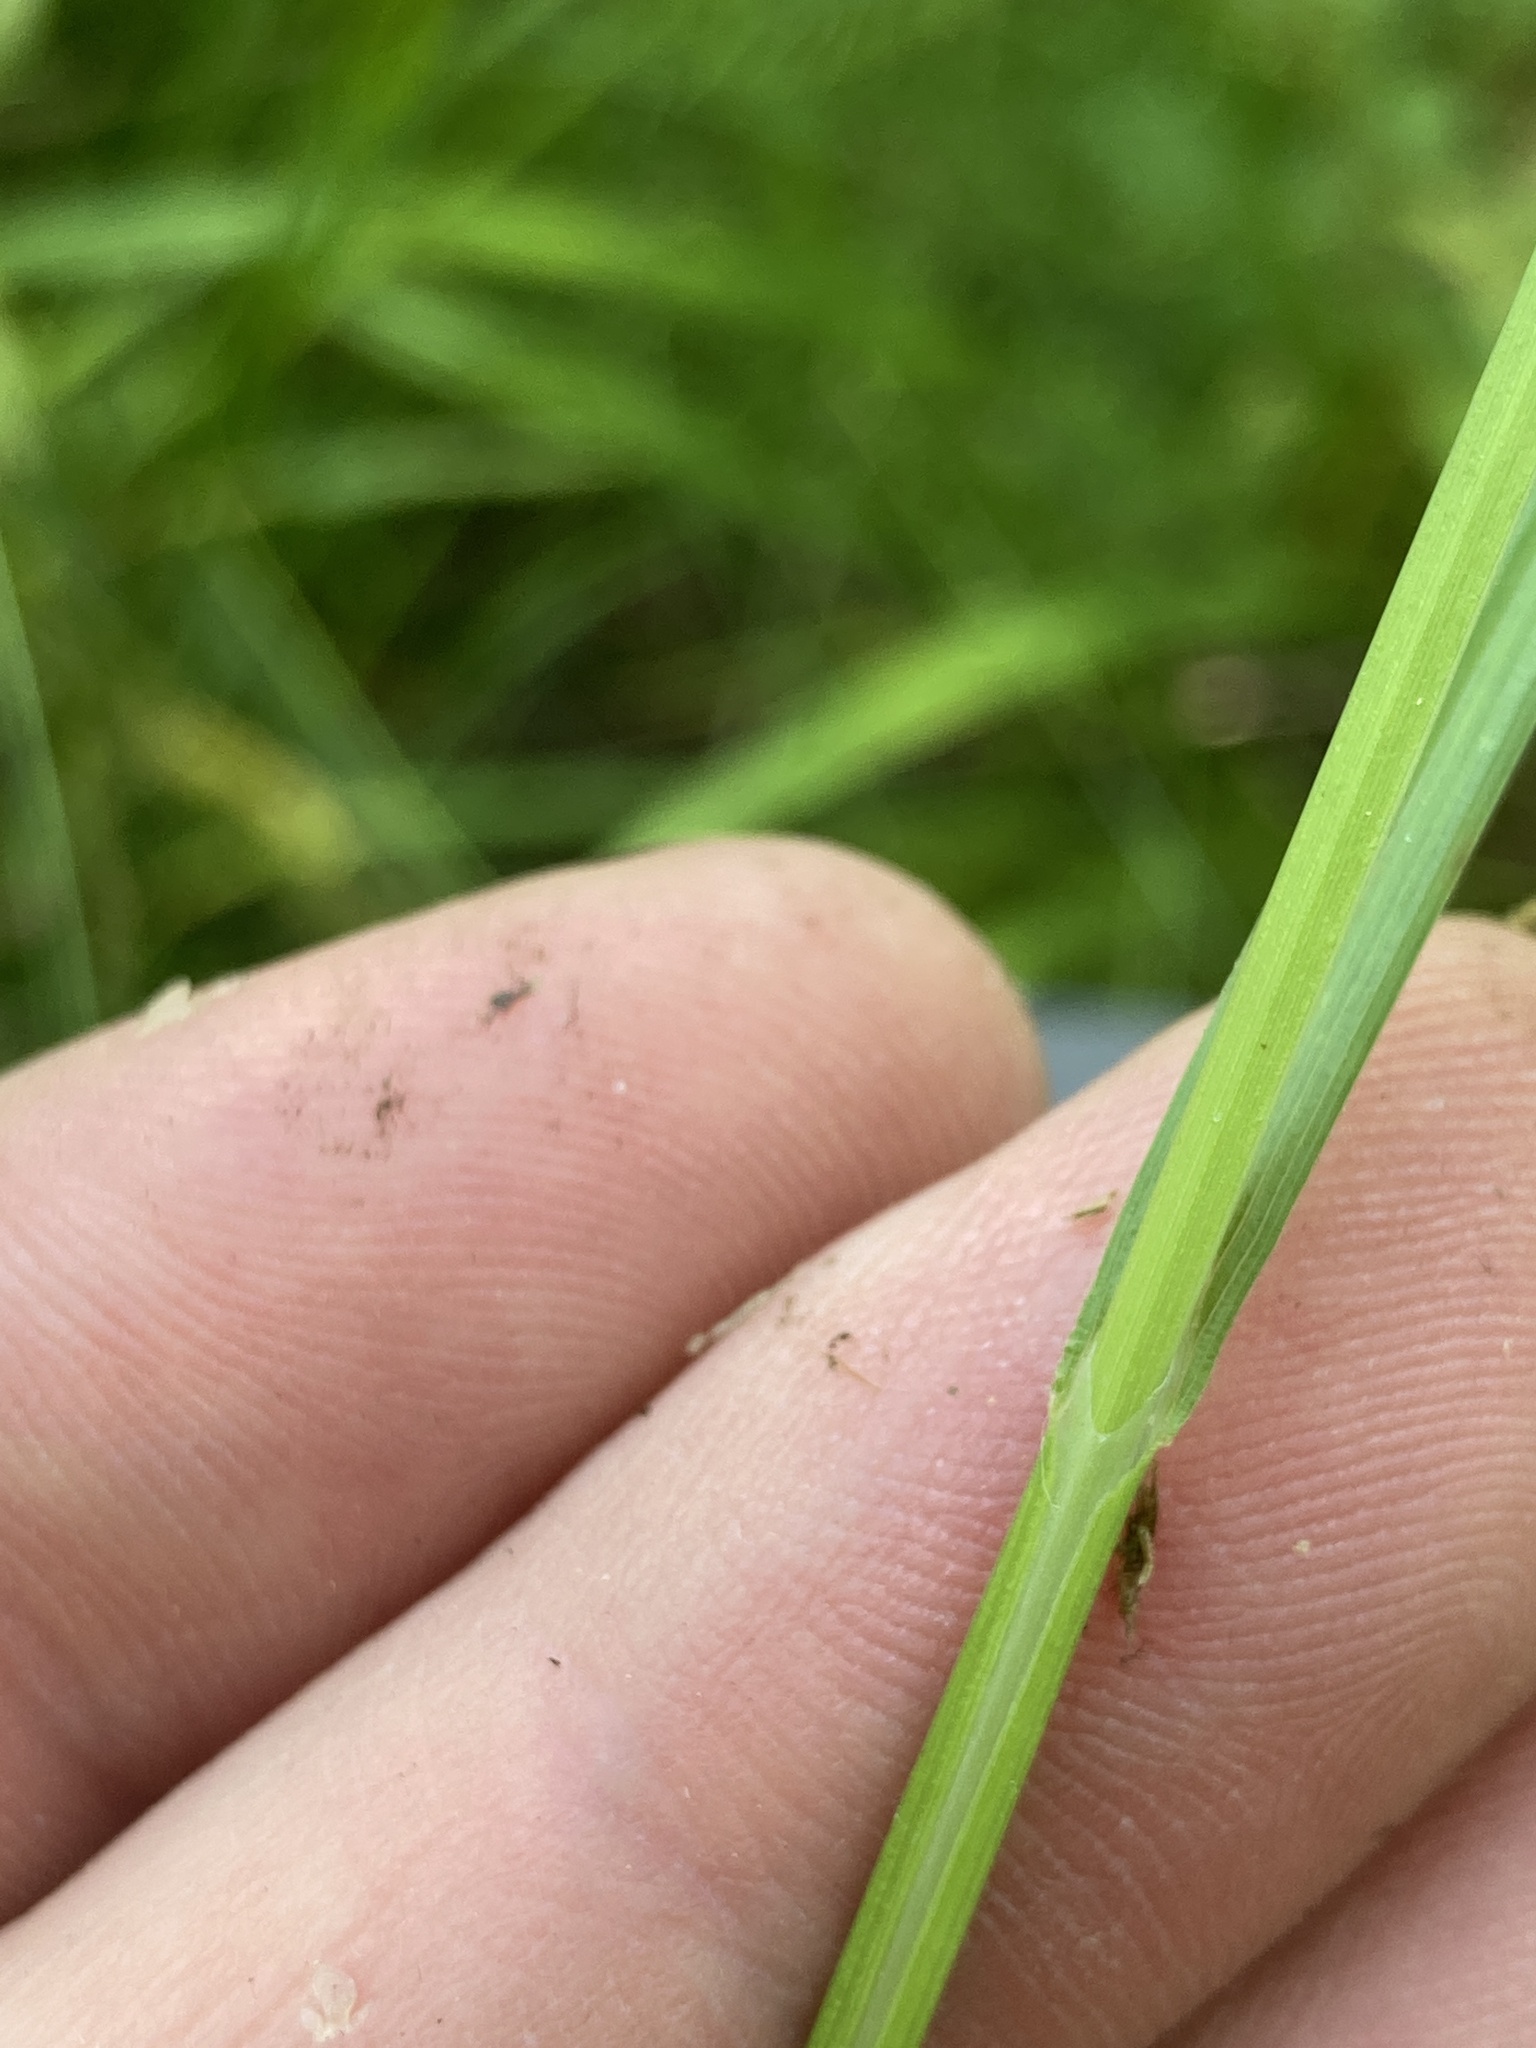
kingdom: Plantae
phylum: Tracheophyta
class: Liliopsida
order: Poales
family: Cyperaceae
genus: Carex
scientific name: Carex bebbii
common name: Bebb's sedge
